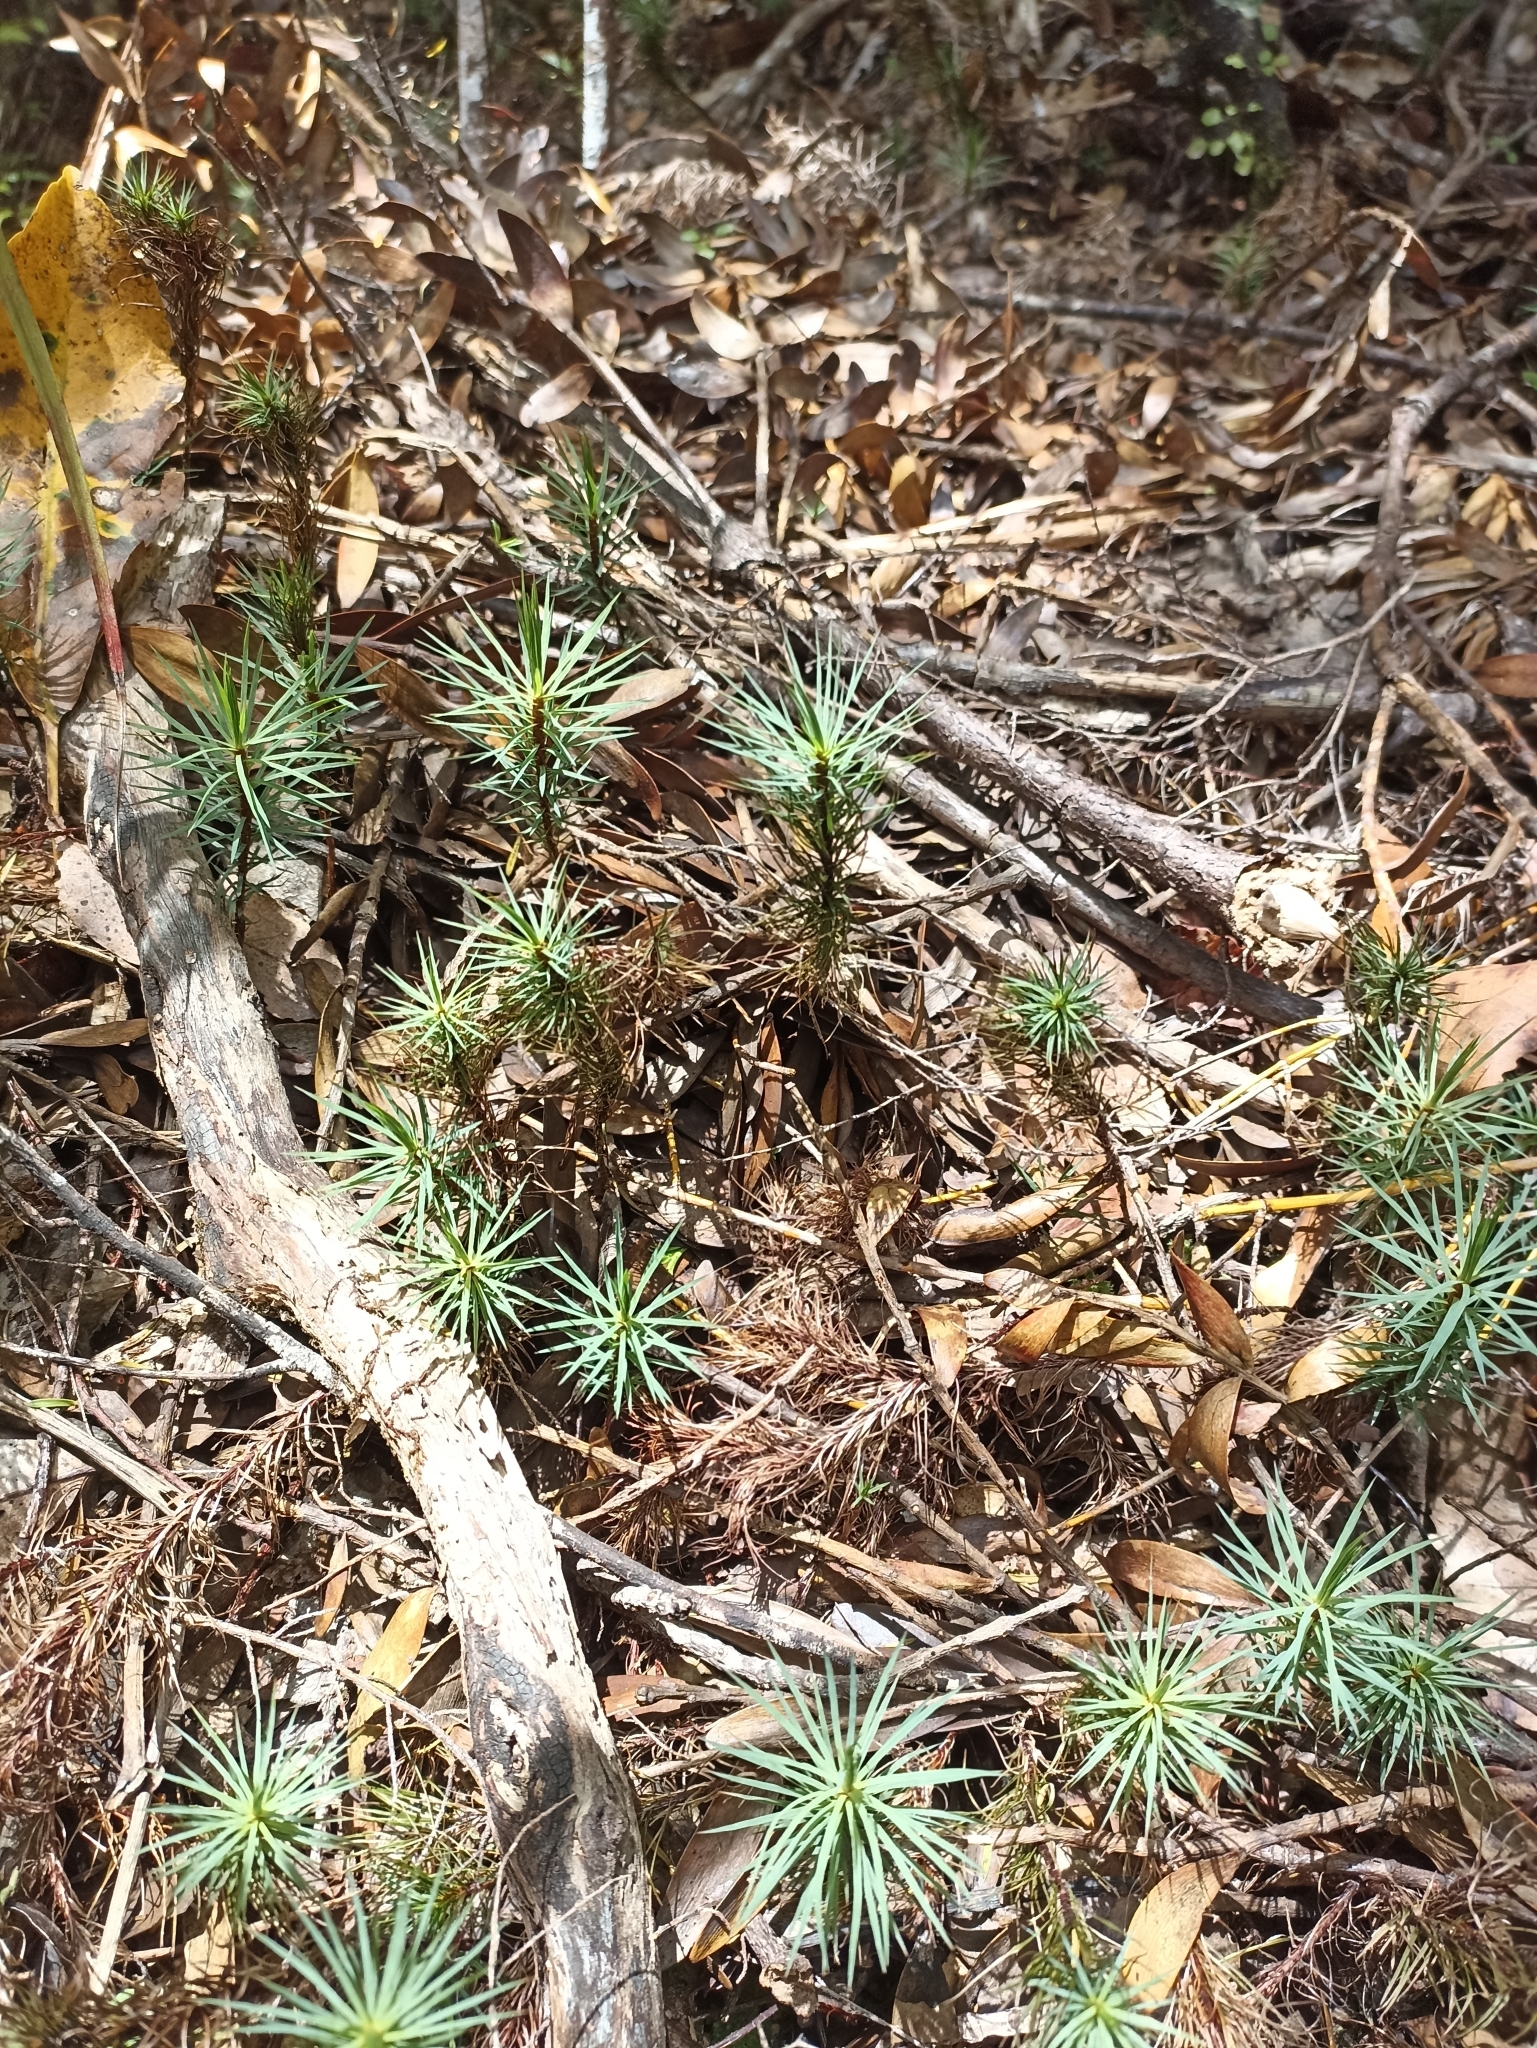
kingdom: Plantae
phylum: Bryophyta
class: Polytrichopsida
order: Polytrichales
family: Polytrichaceae
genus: Dawsonia
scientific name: Dawsonia superba
